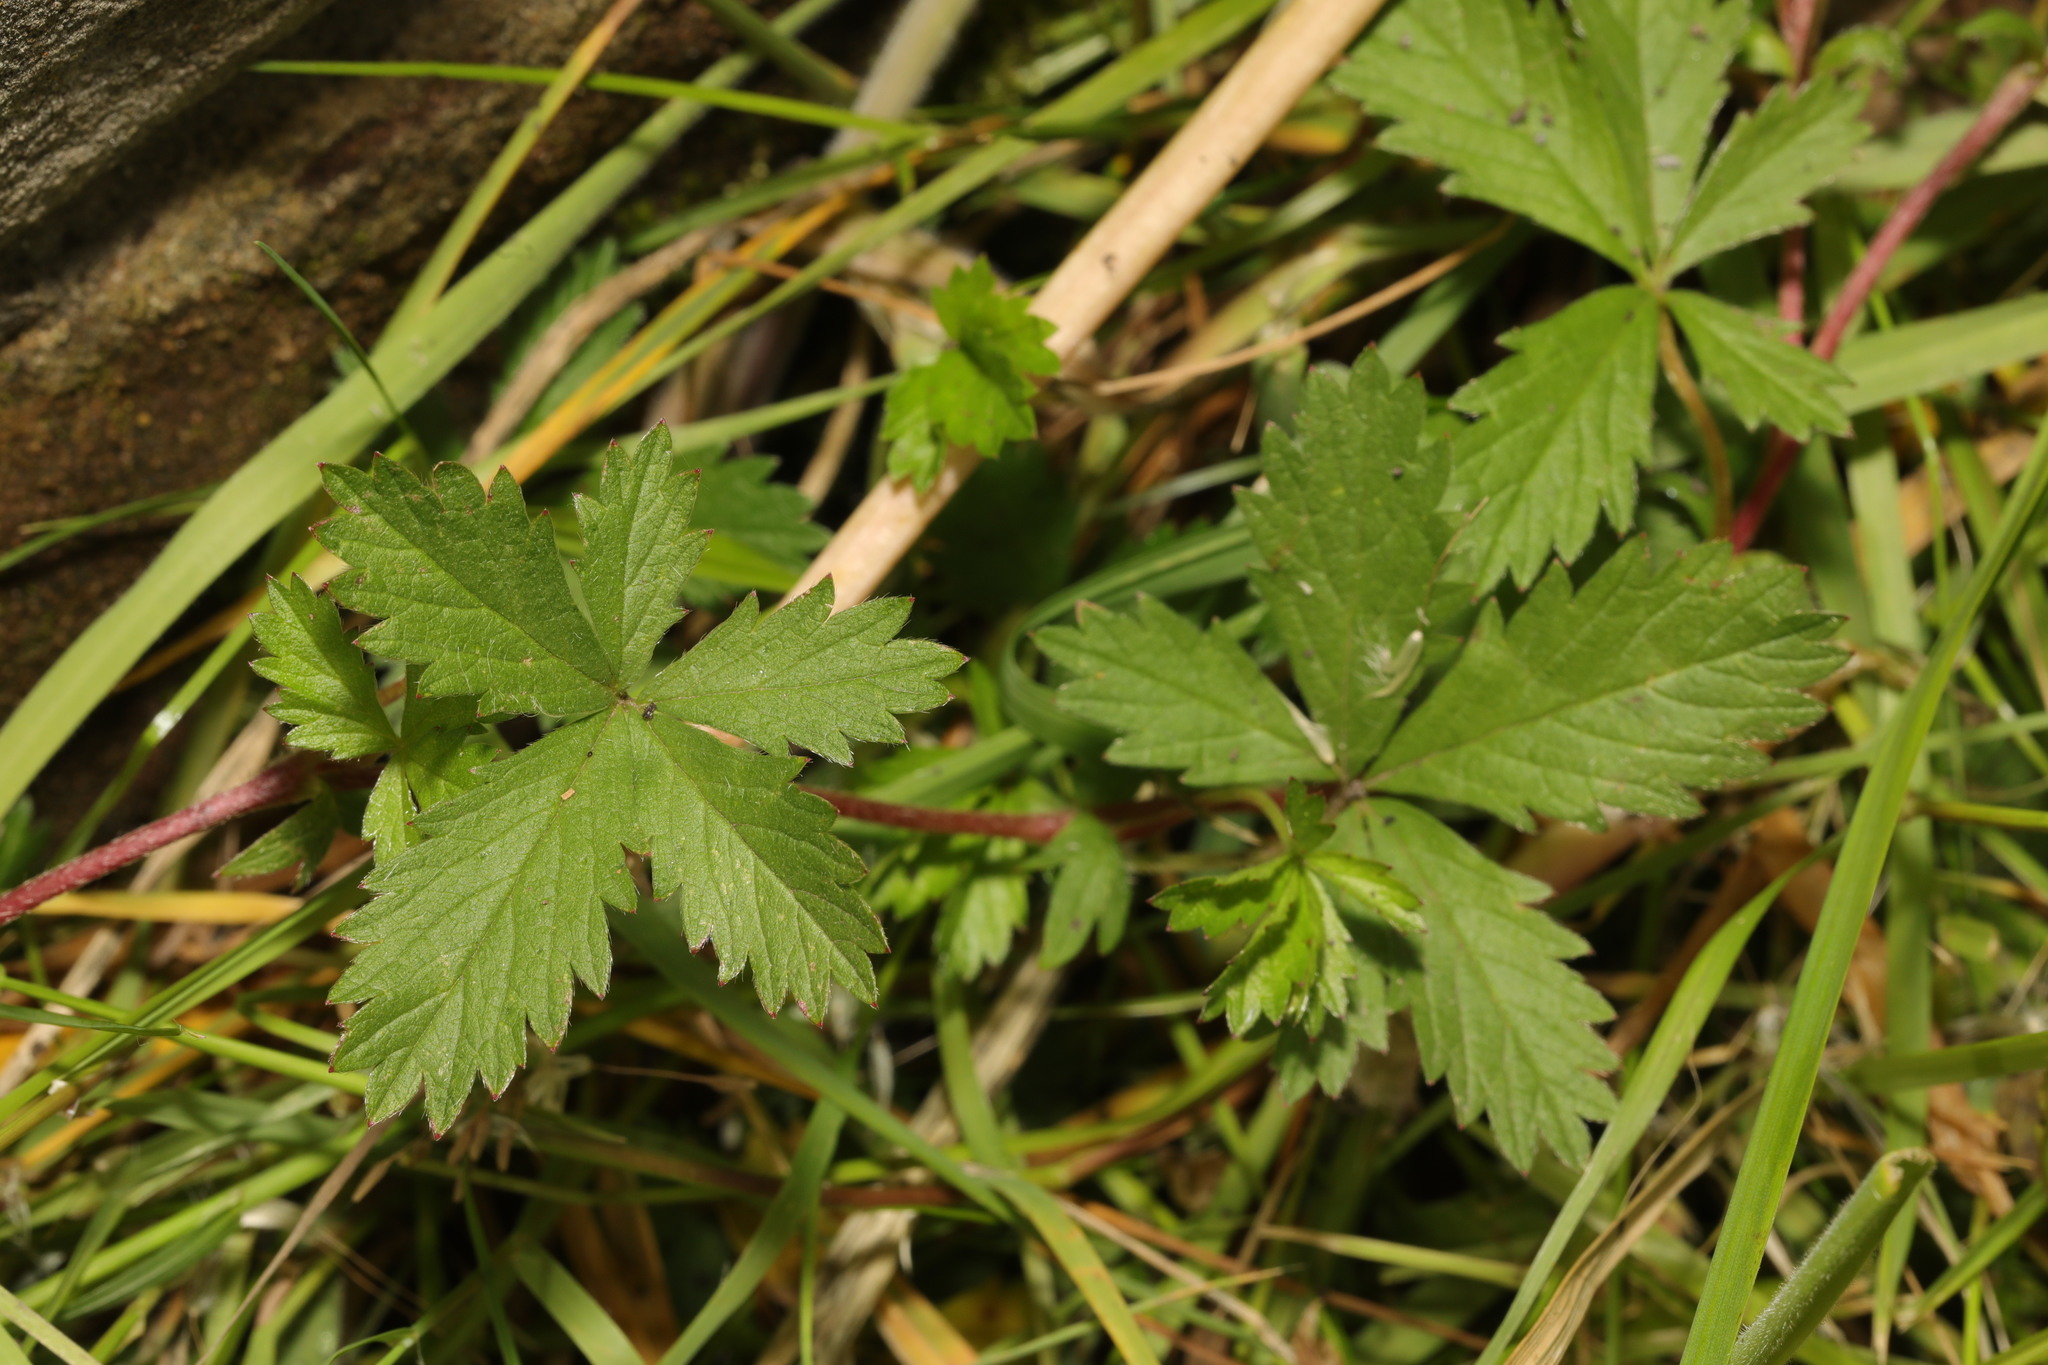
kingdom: Plantae
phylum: Tracheophyta
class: Magnoliopsida
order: Rosales
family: Rosaceae
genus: Potentilla
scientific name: Potentilla reptans
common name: Creeping cinquefoil
